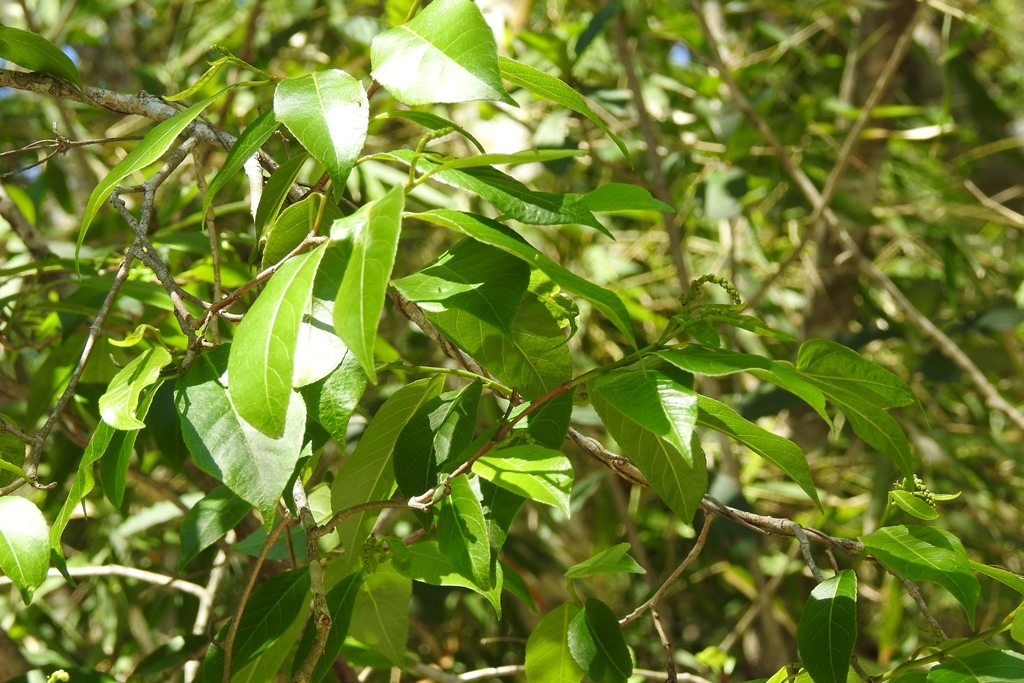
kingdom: Plantae
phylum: Tracheophyta
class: Magnoliopsida
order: Malpighiales
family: Euphorbiaceae
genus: Sebastiania
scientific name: Sebastiania glandulosa
